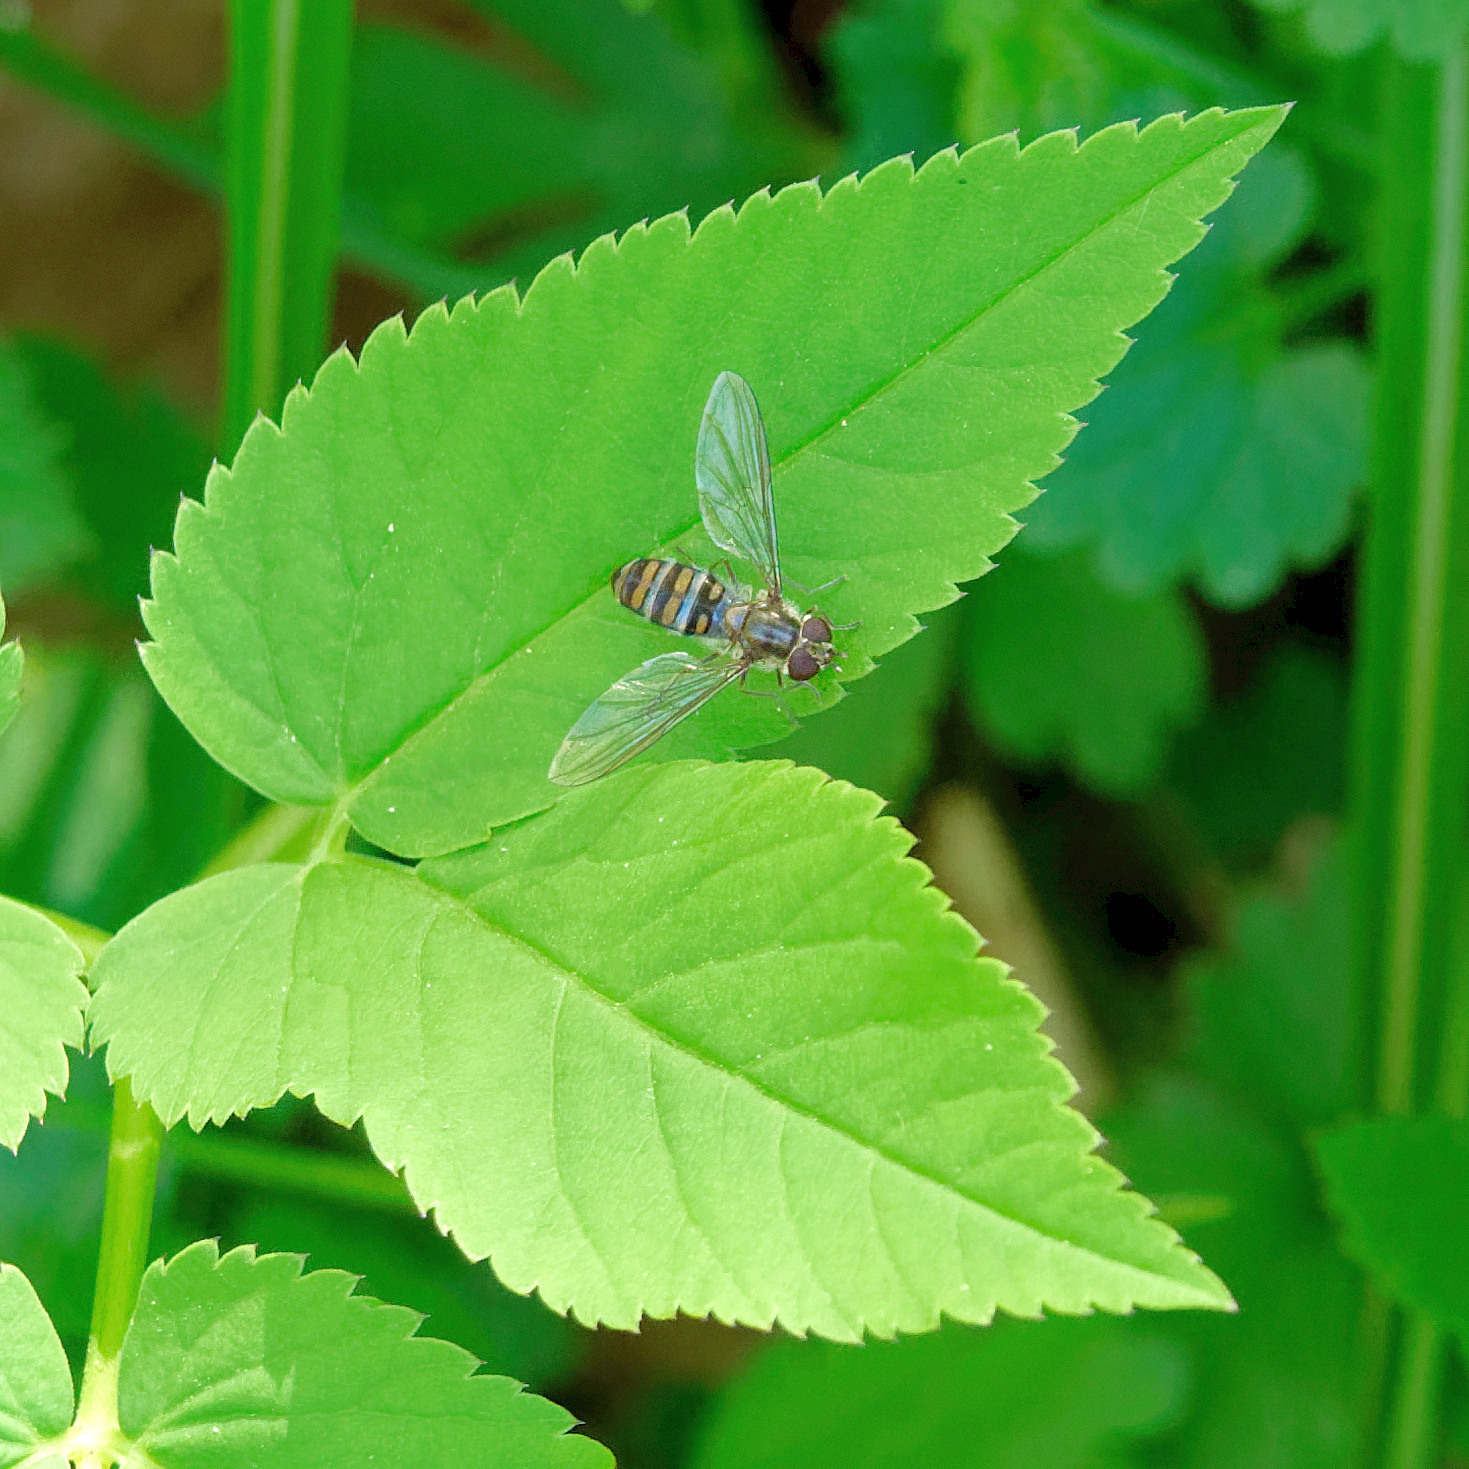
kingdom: Animalia
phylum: Arthropoda
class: Insecta
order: Diptera
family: Syrphidae
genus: Episyrphus
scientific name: Episyrphus balteatus
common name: Marmalade hoverfly
